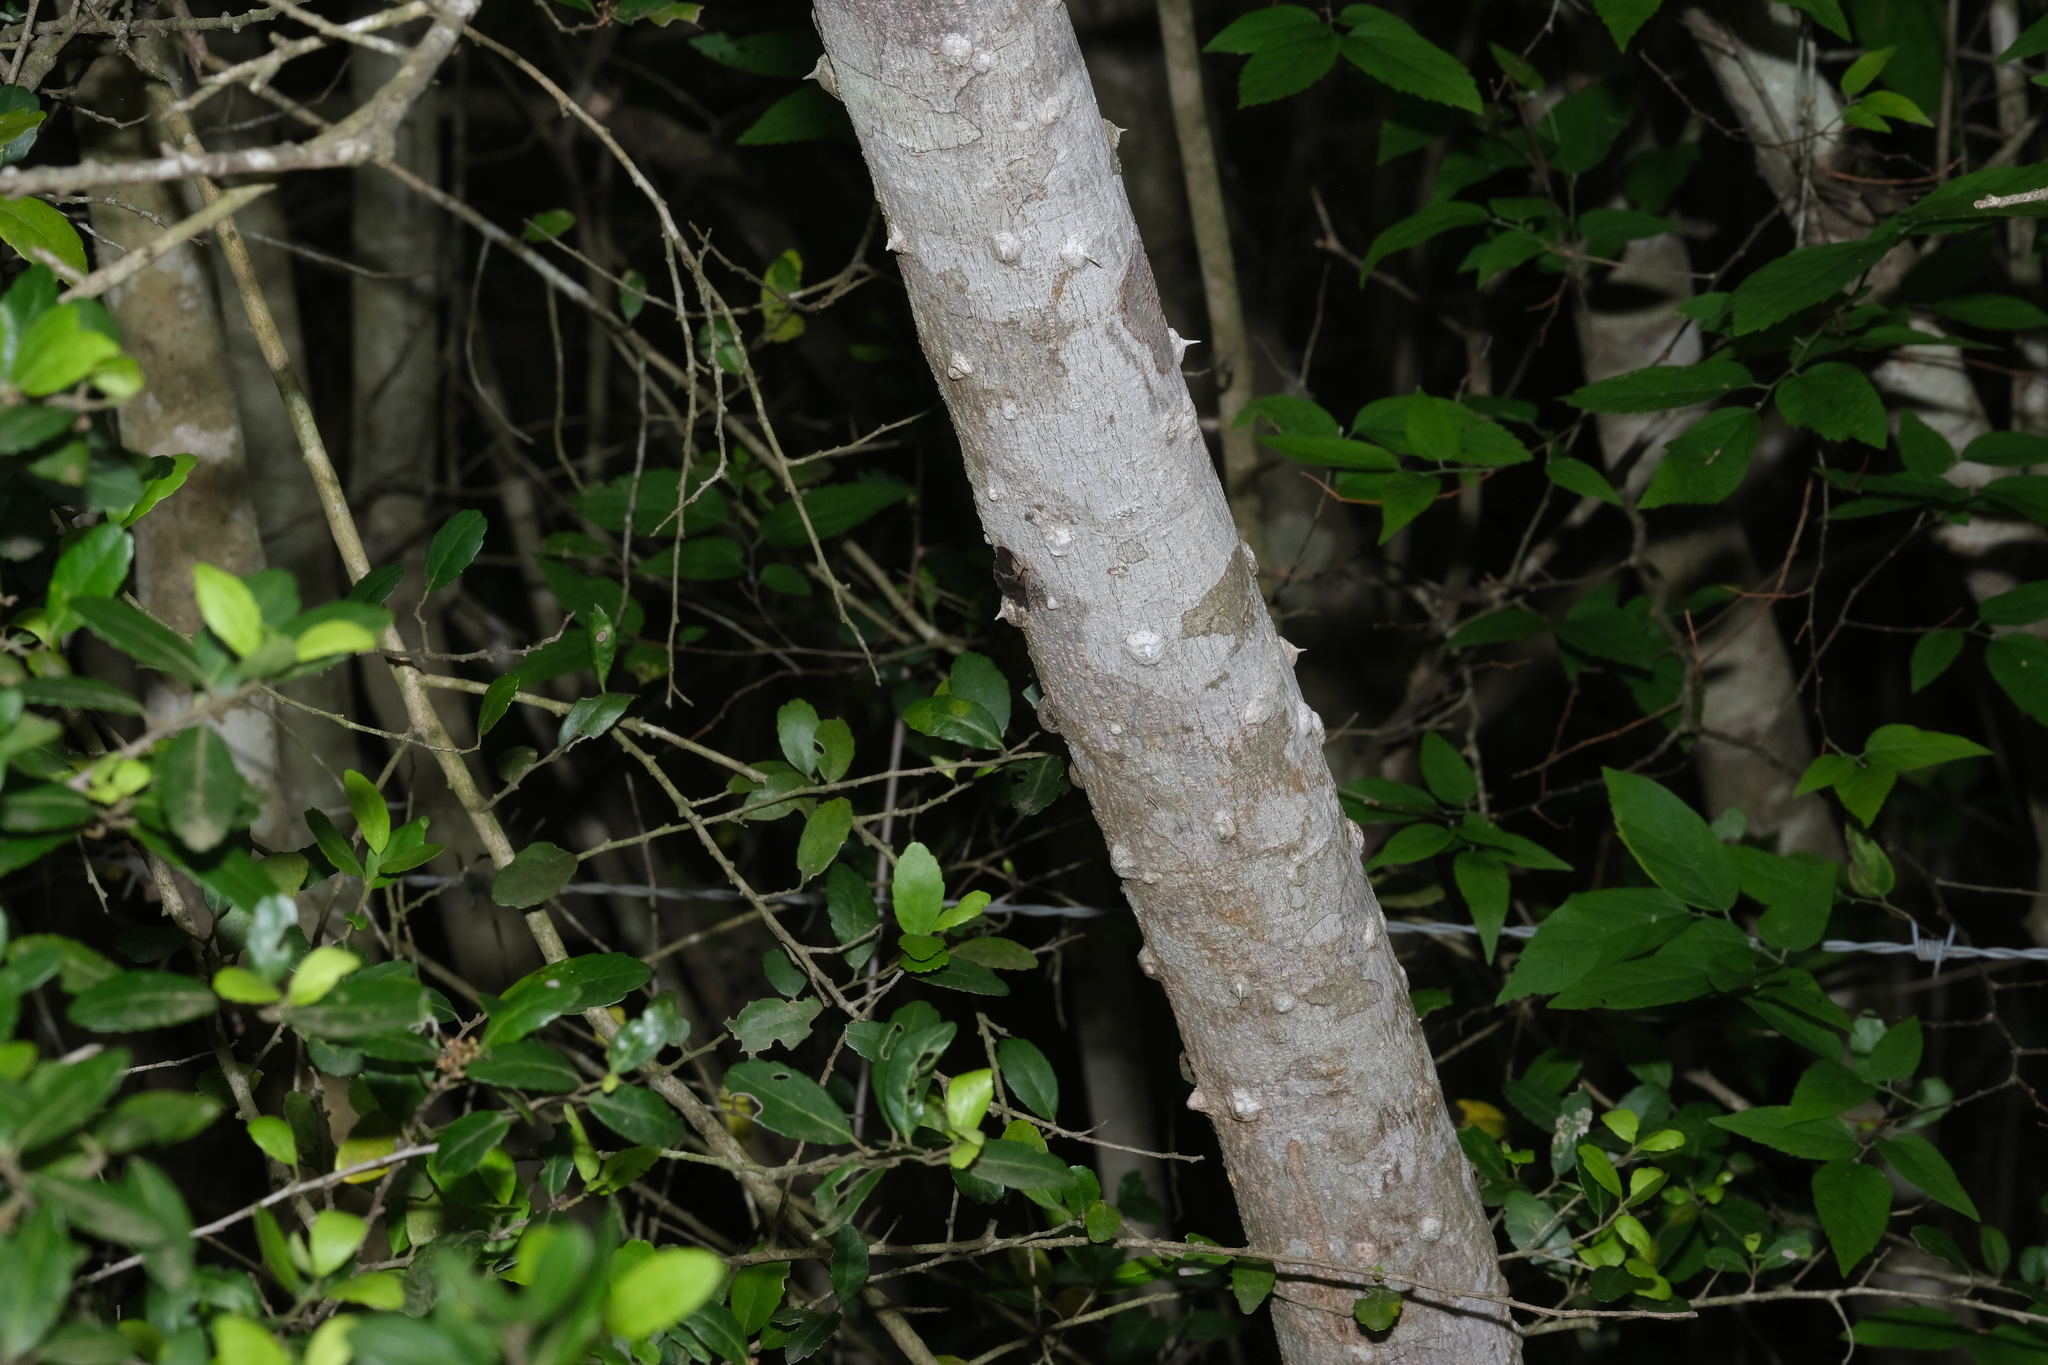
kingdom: Plantae
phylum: Tracheophyta
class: Magnoliopsida
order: Sapindales
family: Rutaceae
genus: Zanthoxylum
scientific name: Zanthoxylum clava-herculis
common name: Hercules'-club
